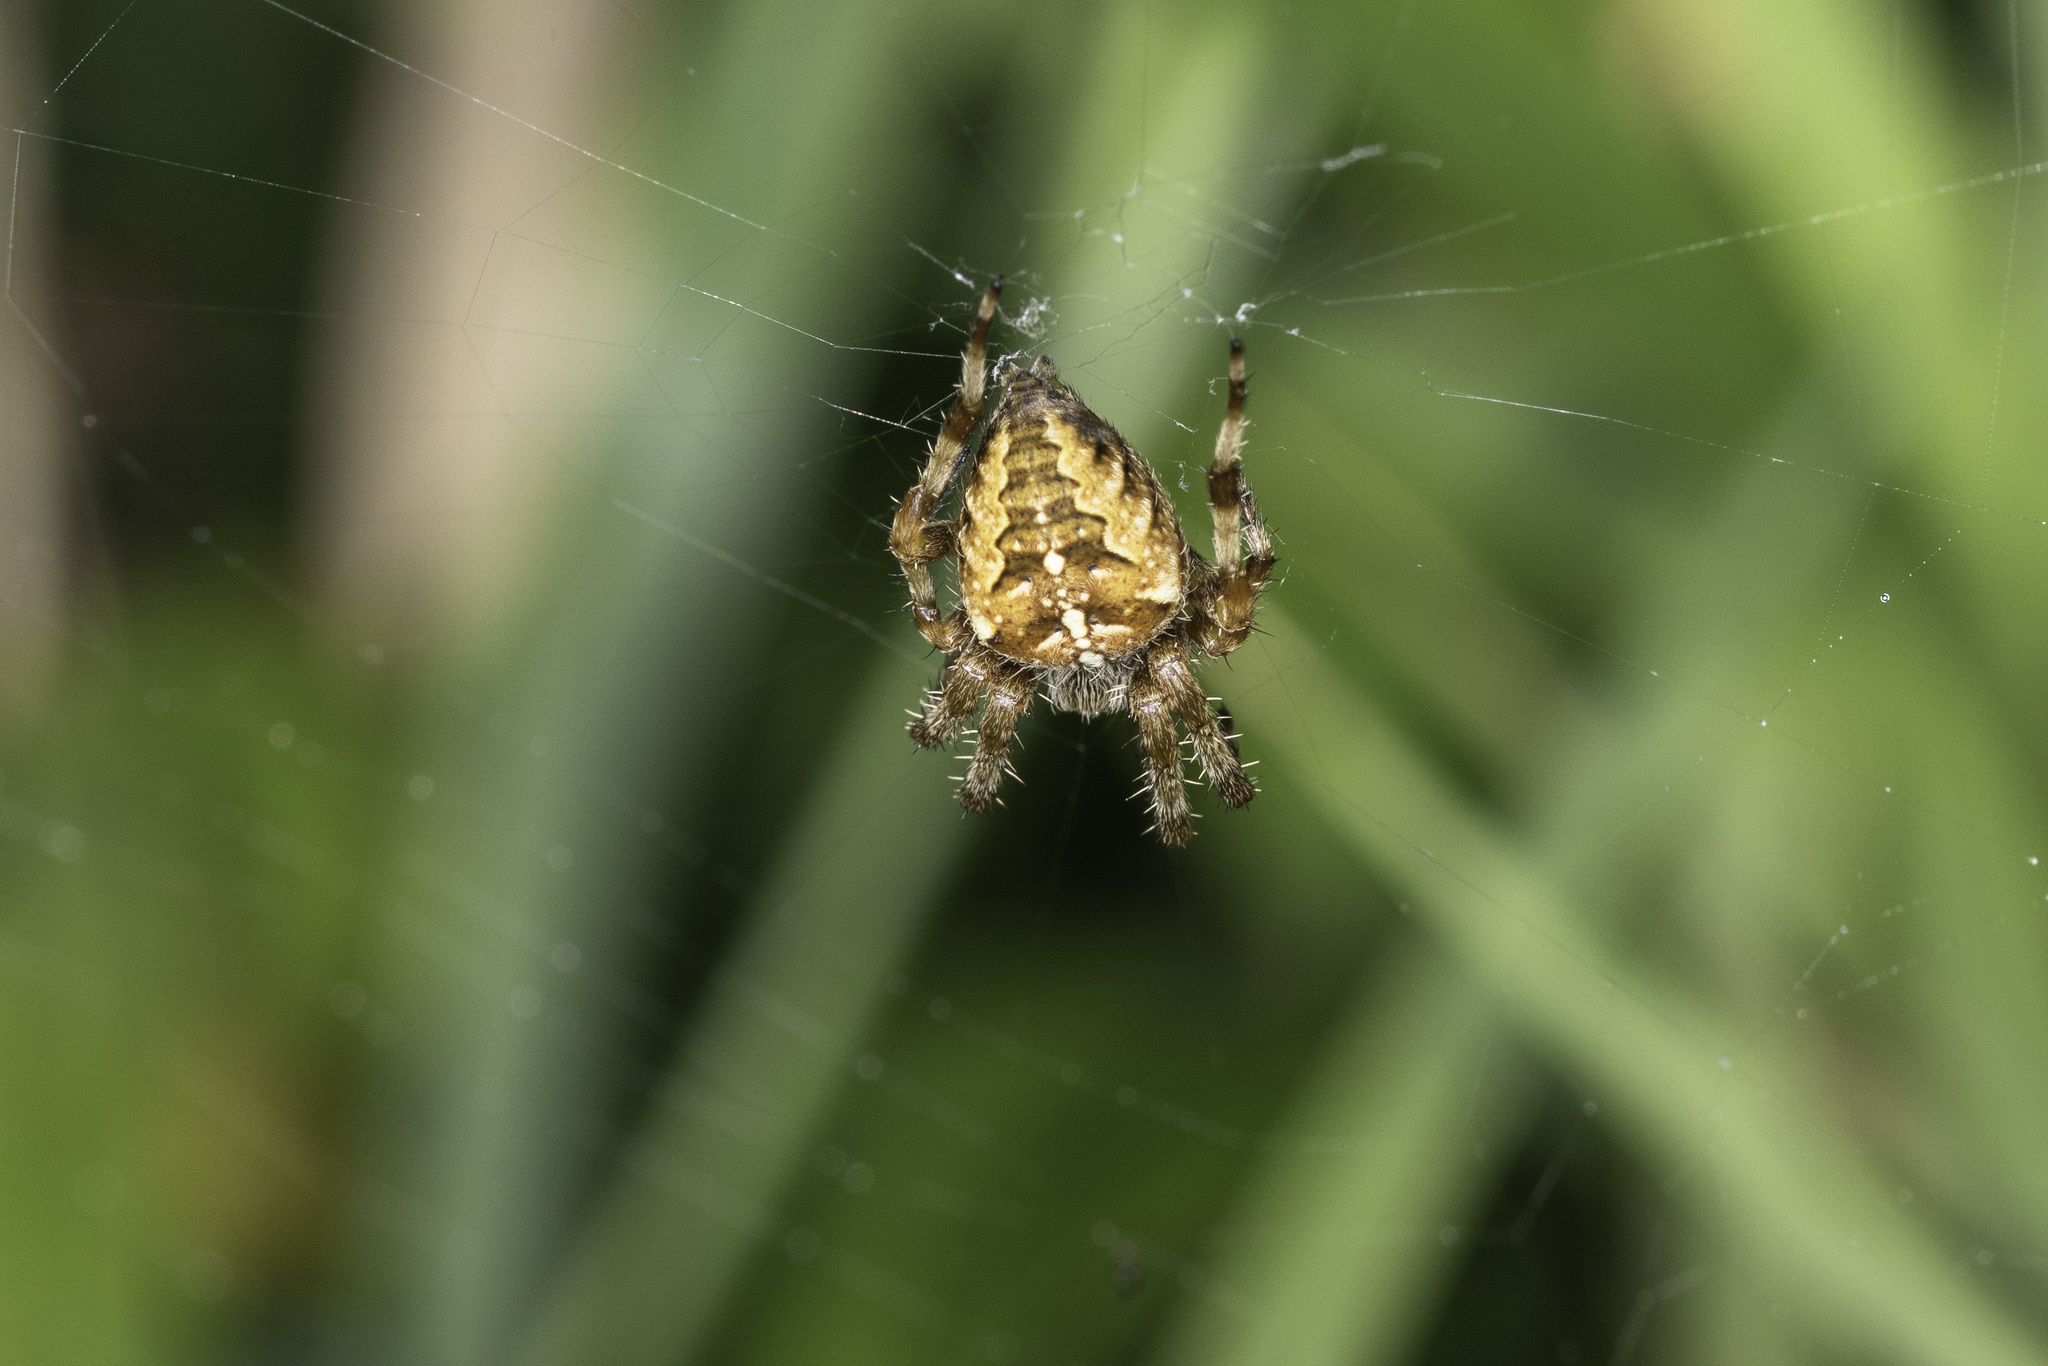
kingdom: Animalia
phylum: Arthropoda
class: Arachnida
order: Araneae
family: Araneidae
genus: Araneus
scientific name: Araneus diadematus
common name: Cross orbweaver
